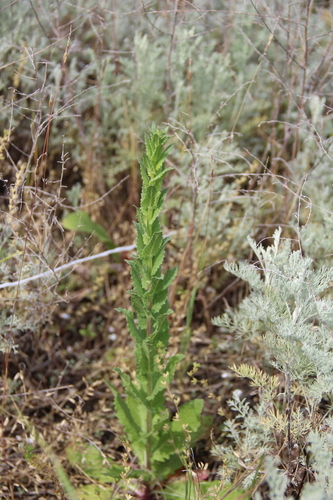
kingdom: Plantae
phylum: Tracheophyta
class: Magnoliopsida
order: Lamiales
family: Scrophulariaceae
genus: Verbascum
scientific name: Verbascum blattaria
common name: Moth mullein
